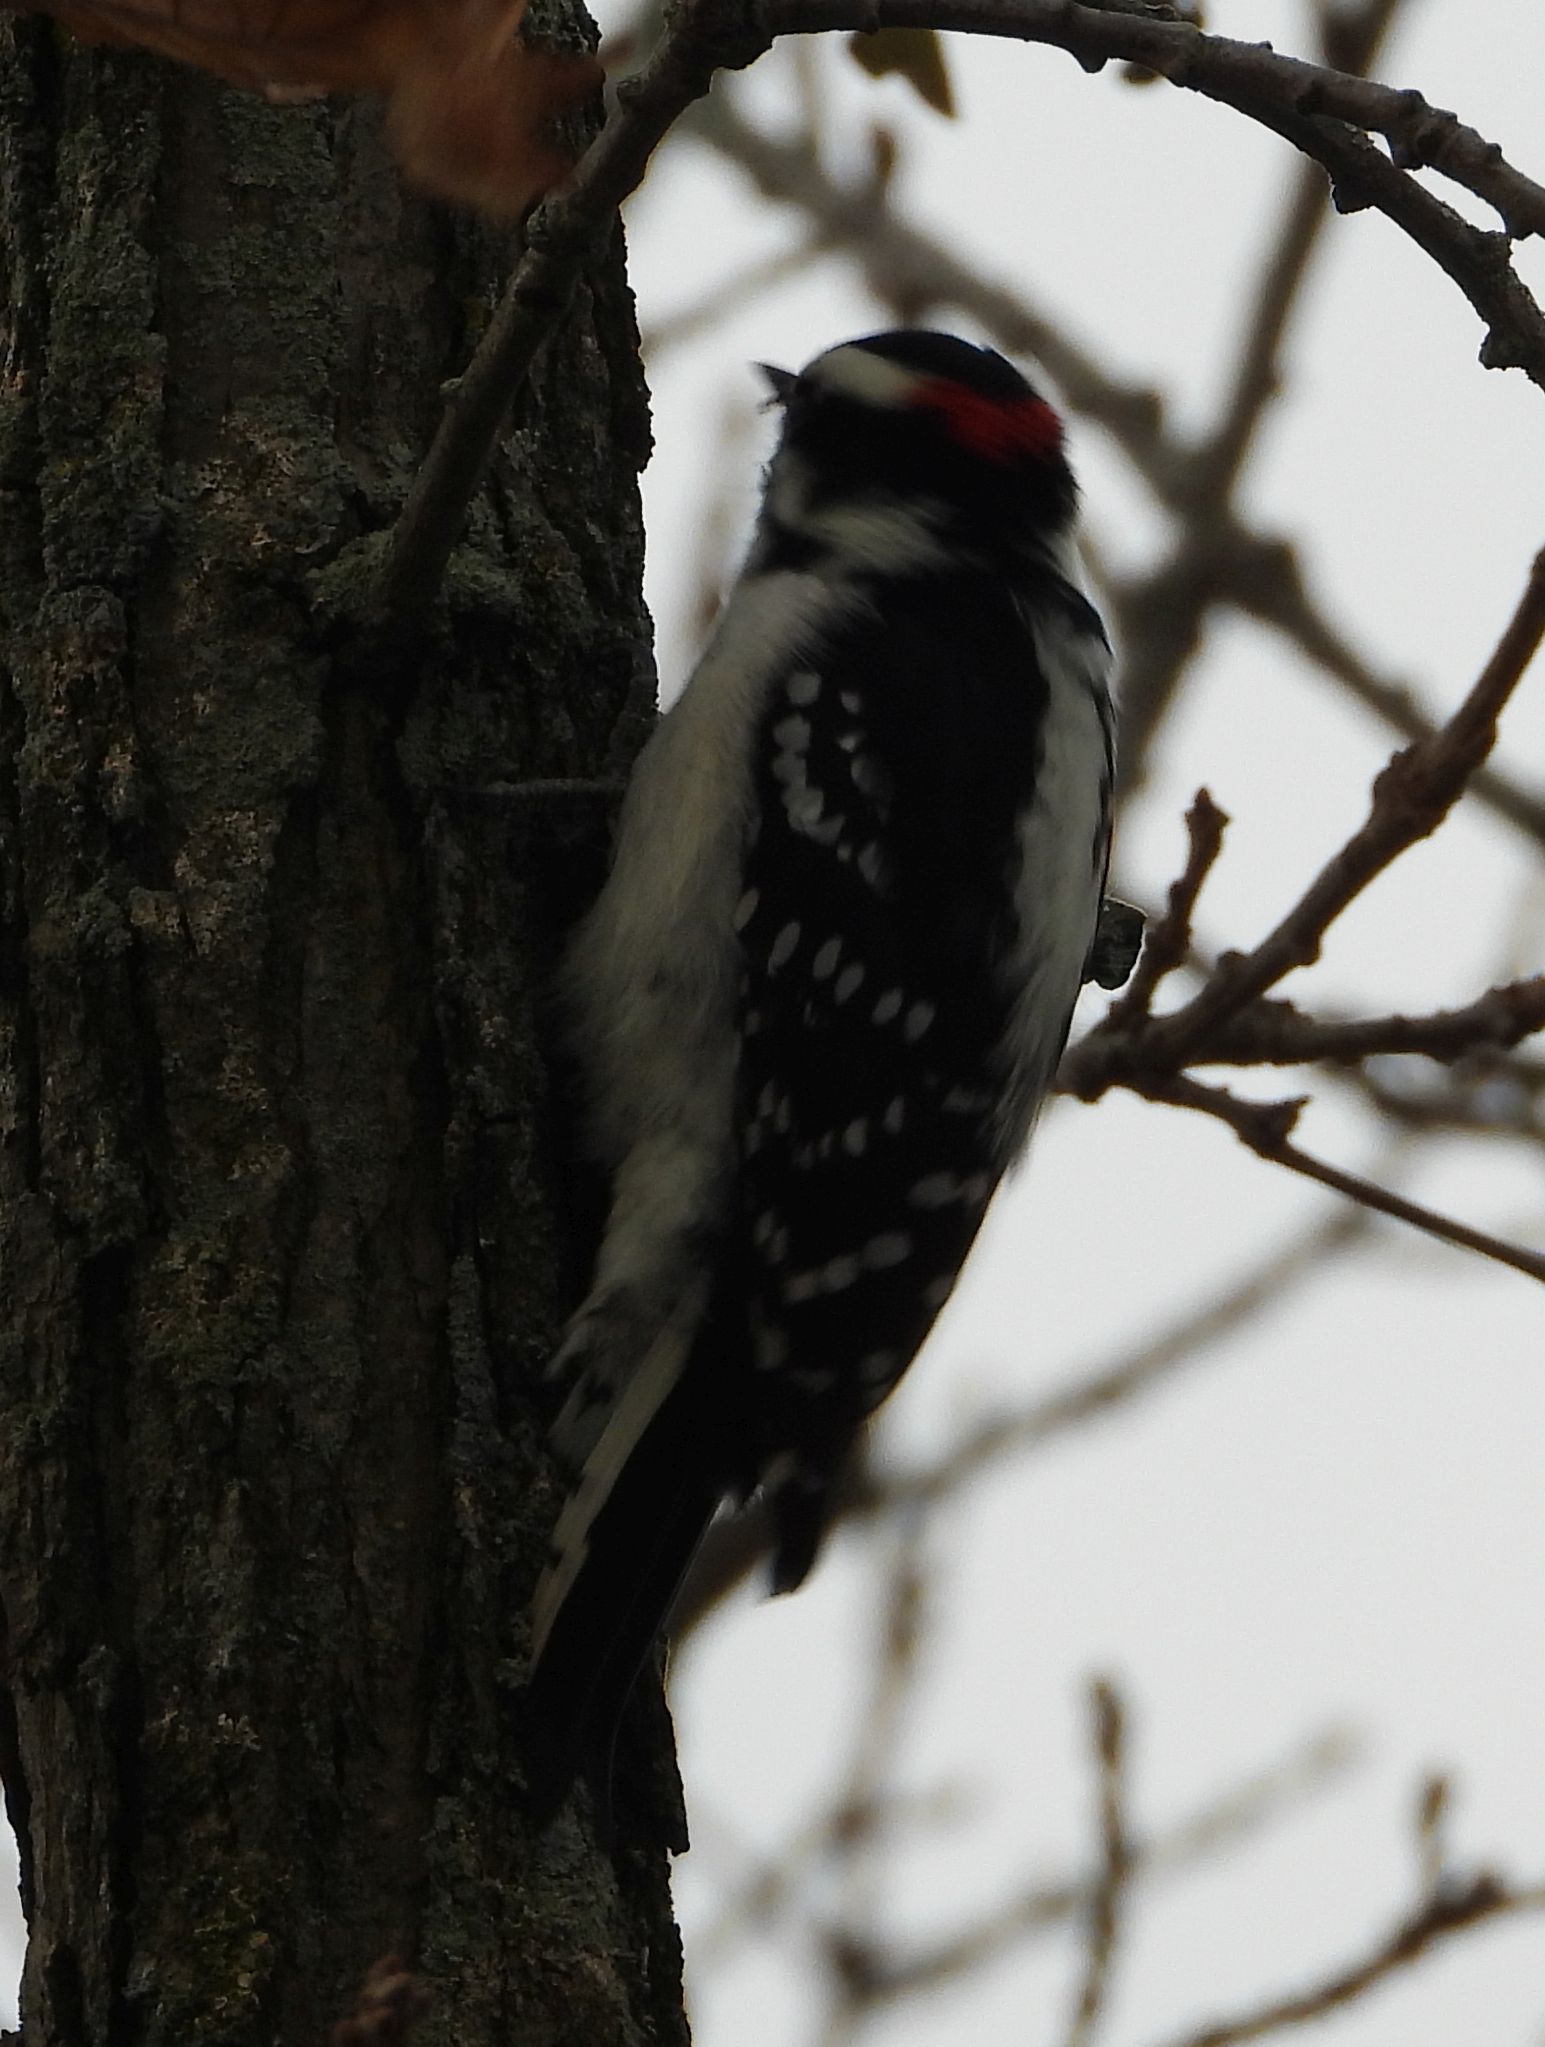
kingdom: Animalia
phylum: Chordata
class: Aves
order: Piciformes
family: Picidae
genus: Dryobates
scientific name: Dryobates pubescens
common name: Downy woodpecker
